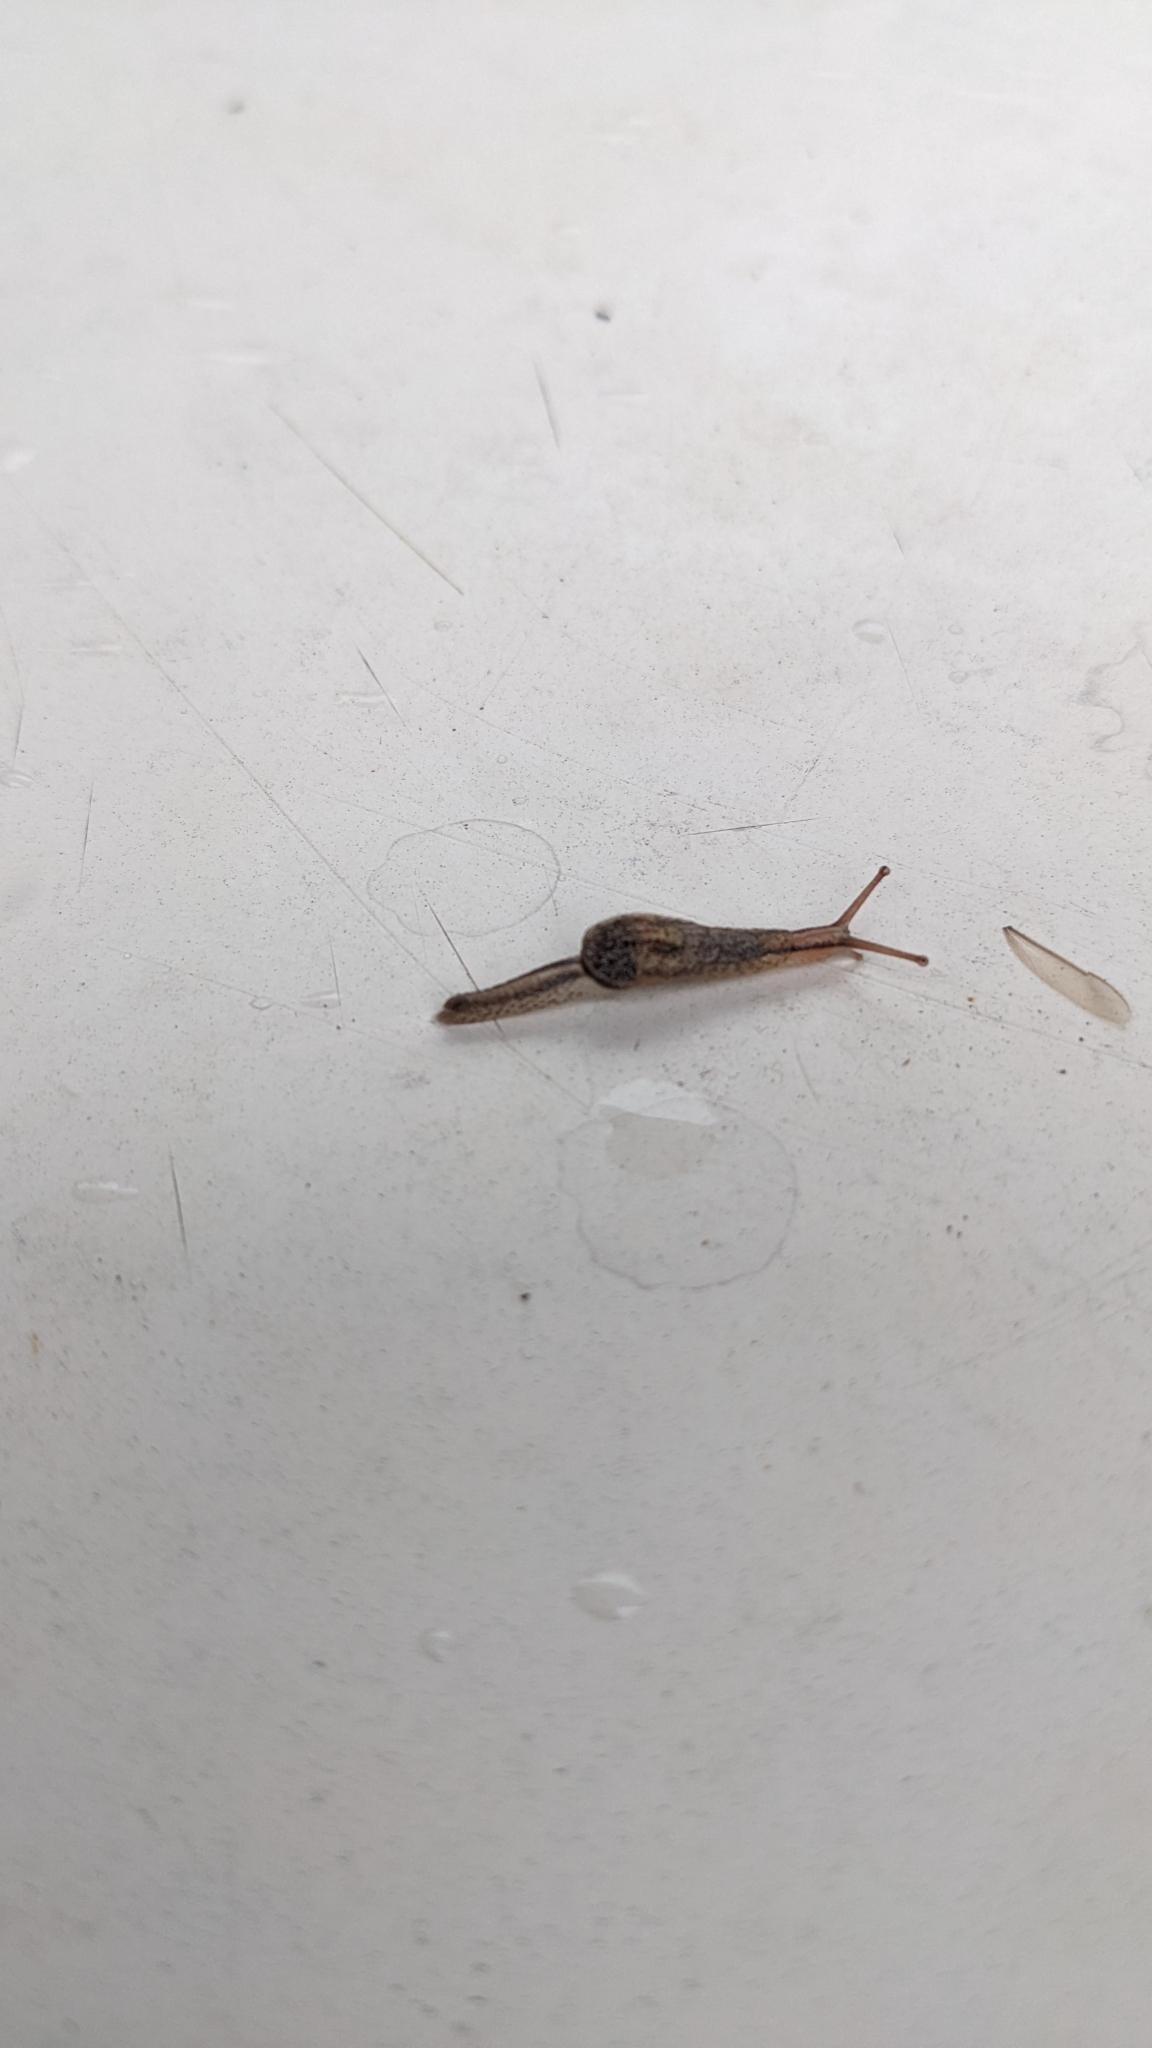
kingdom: Animalia
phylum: Mollusca
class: Gastropoda
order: Stylommatophora
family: Ariophantidae
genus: Parmarion
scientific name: Parmarion martensi
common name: Semi-slug
